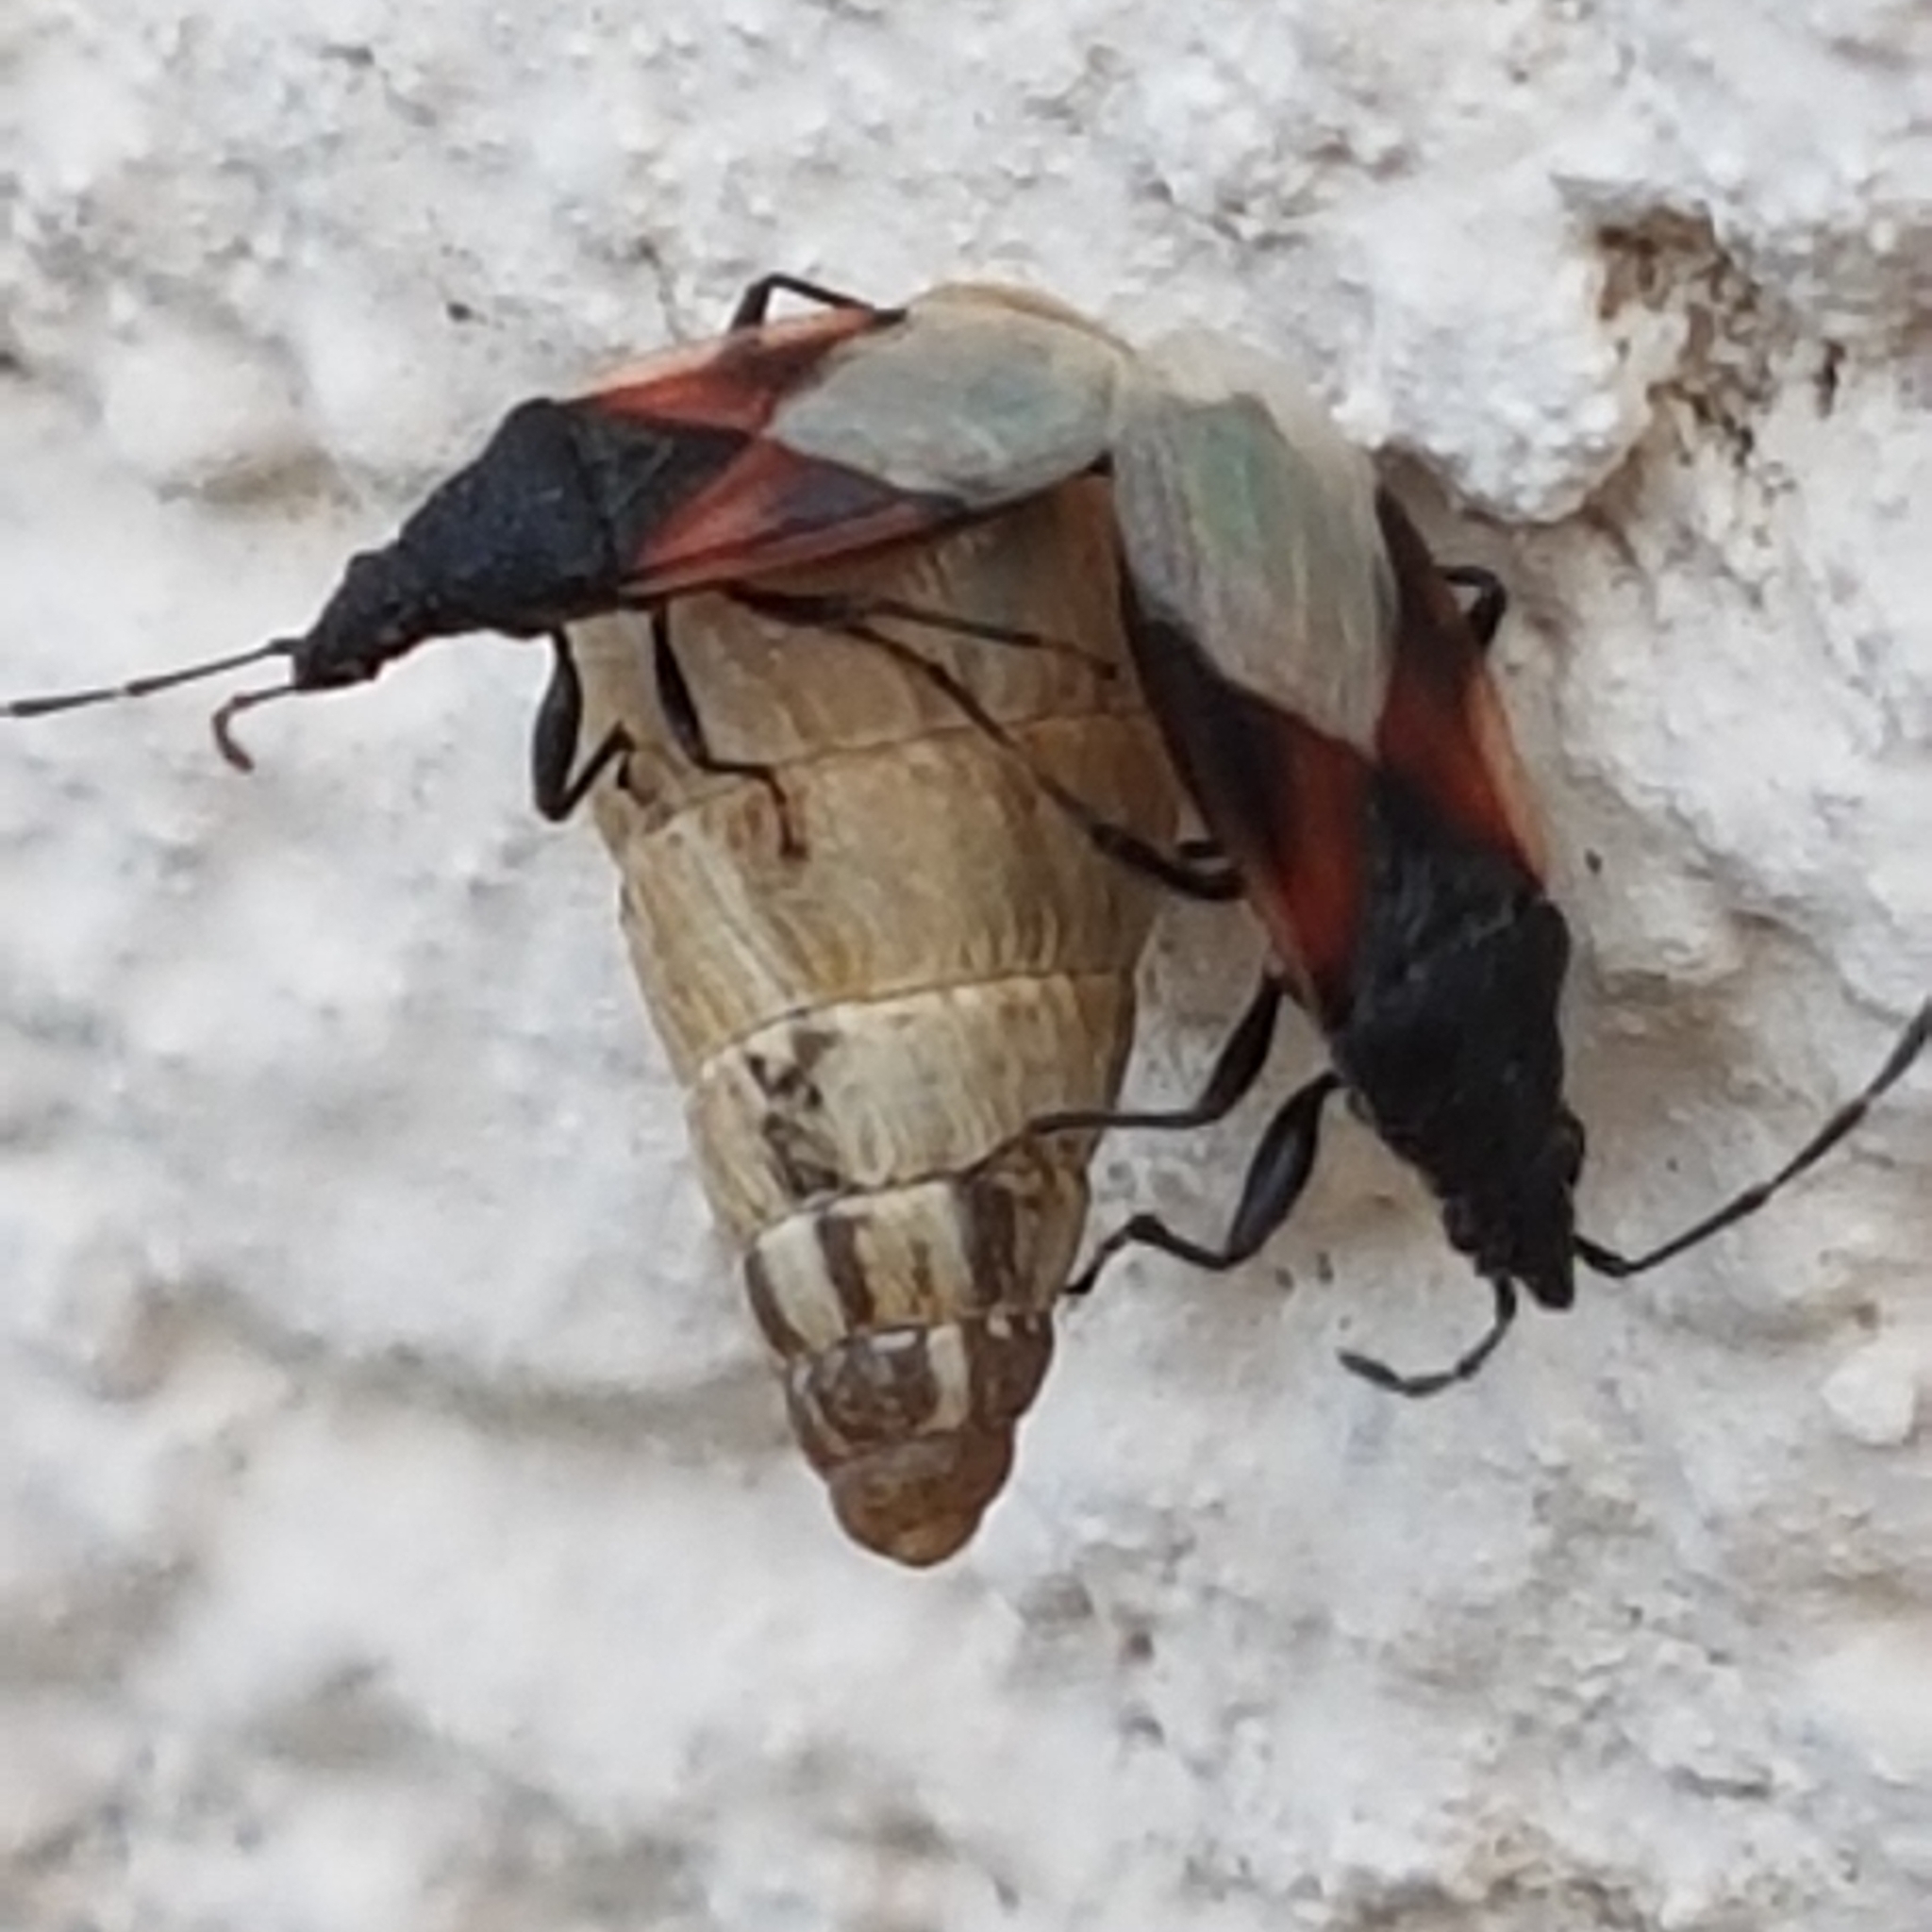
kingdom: Animalia
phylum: Arthropoda
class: Insecta
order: Hemiptera
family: Oxycarenidae
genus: Oxycarenus
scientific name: Oxycarenus lavaterae
